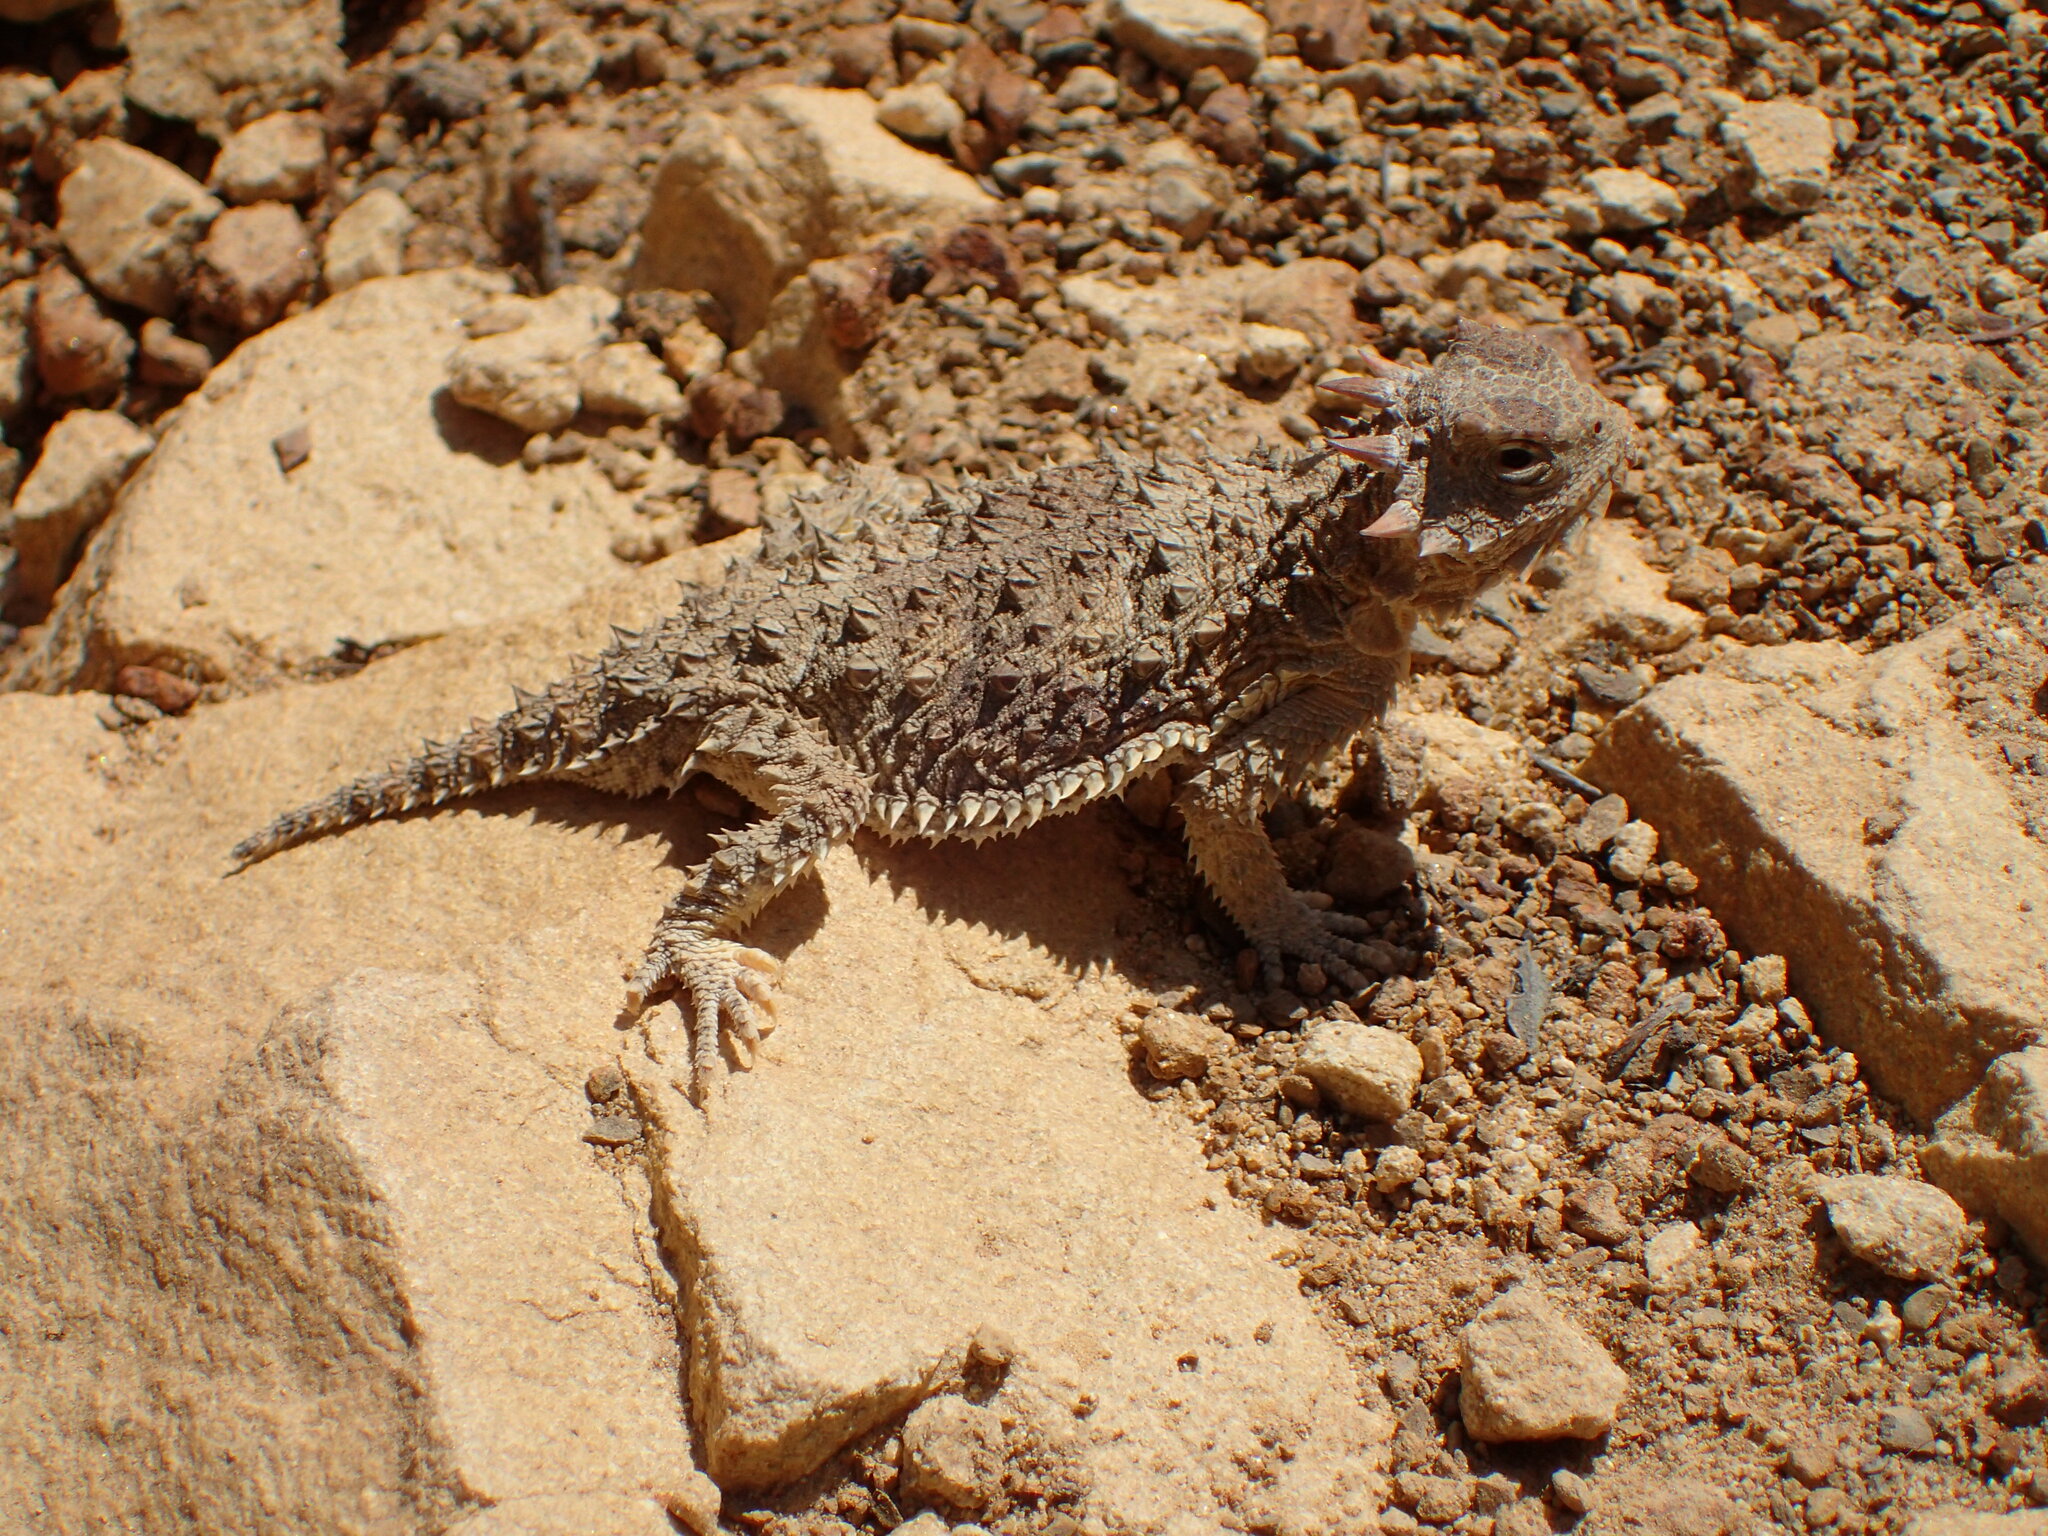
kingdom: Animalia
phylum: Chordata
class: Squamata
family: Phrynosomatidae
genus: Phrynosoma
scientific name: Phrynosoma blainvillii
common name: San diego horned lizard
